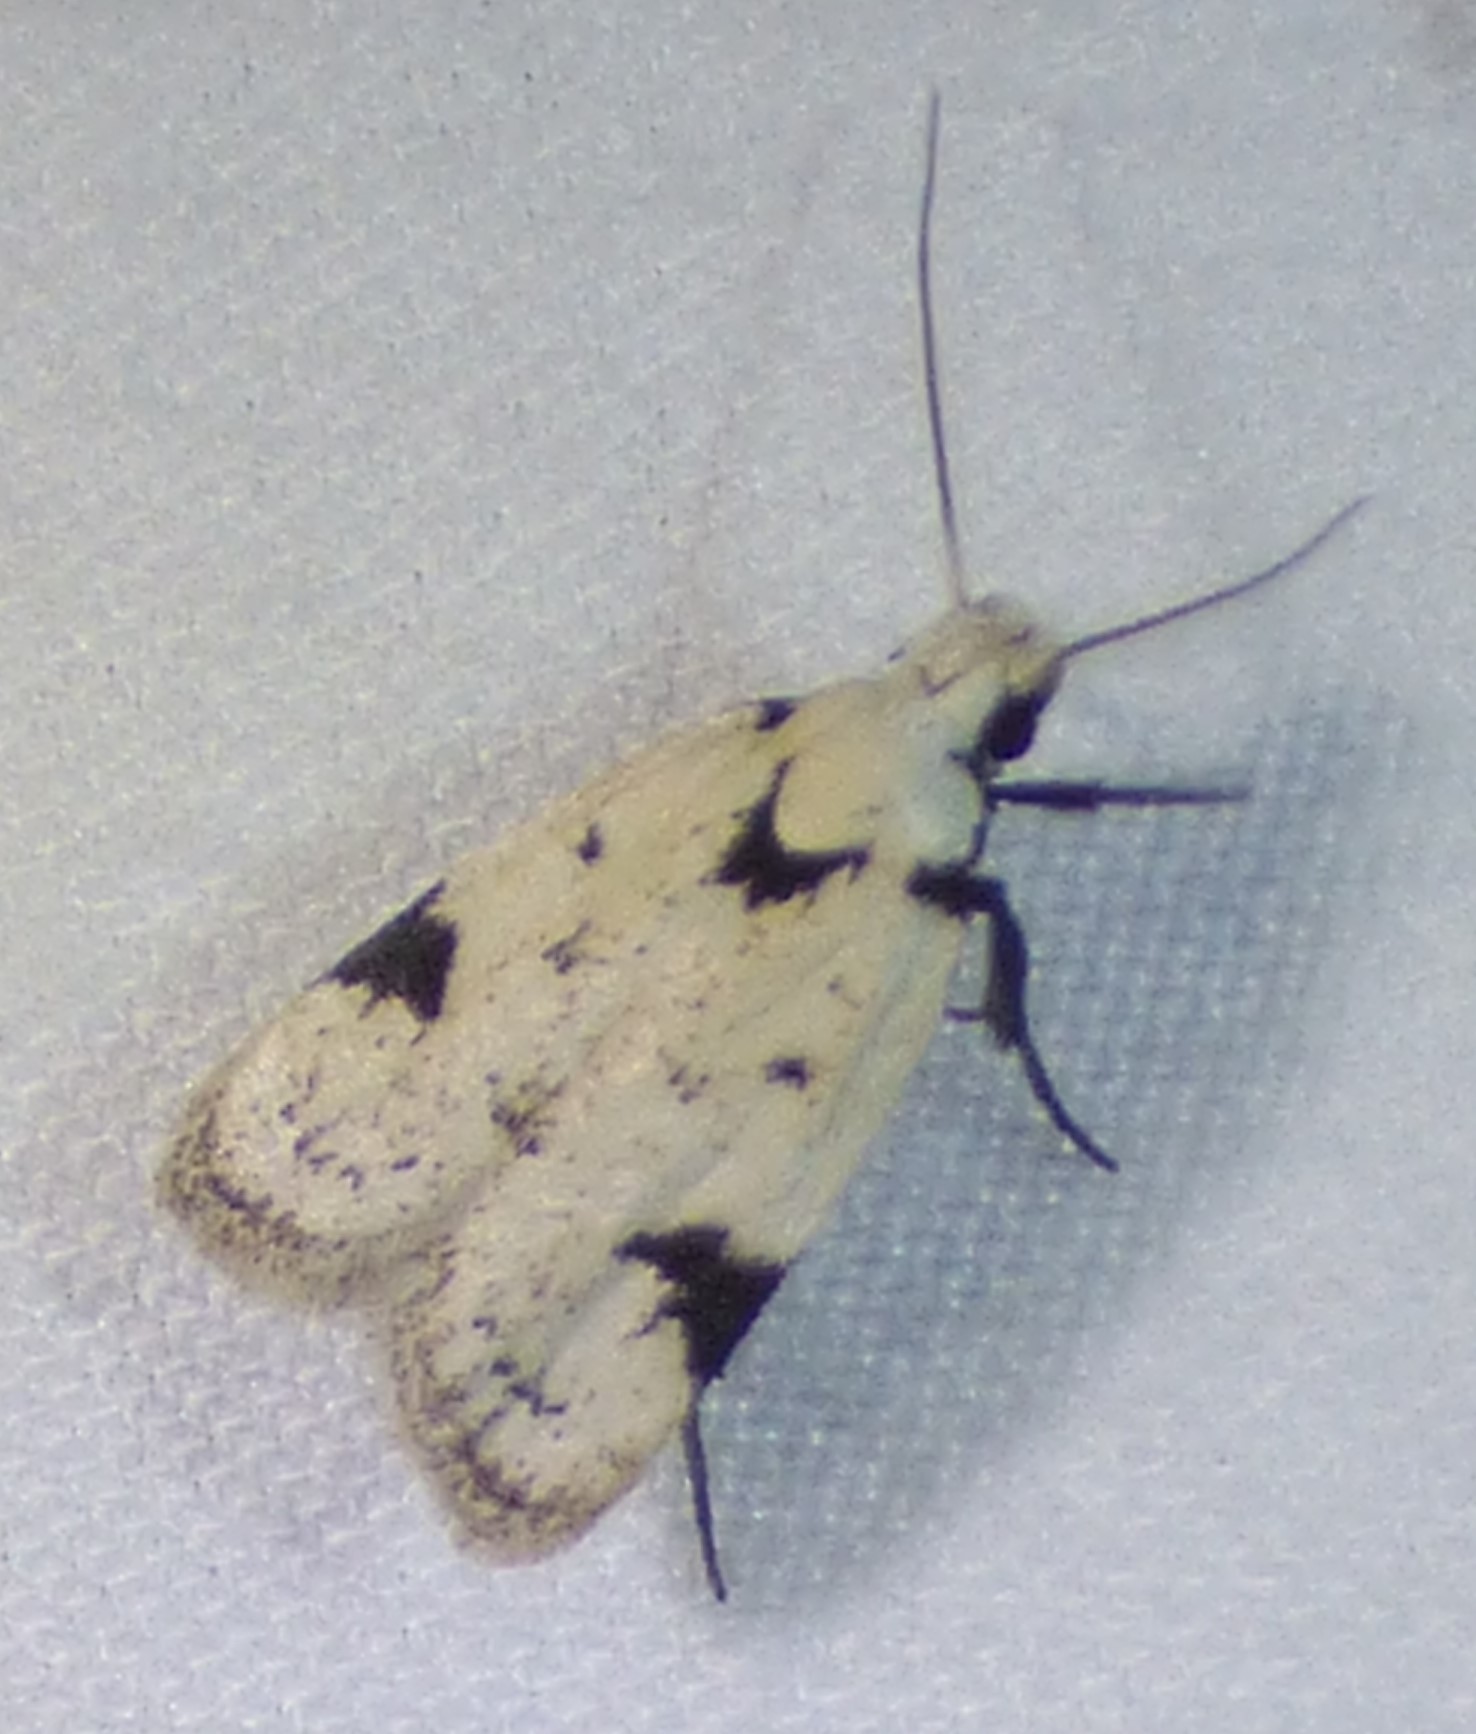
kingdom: Animalia
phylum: Arthropoda
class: Insecta
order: Lepidoptera
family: Oecophoridae
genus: Inga
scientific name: Inga sparsiciliella
